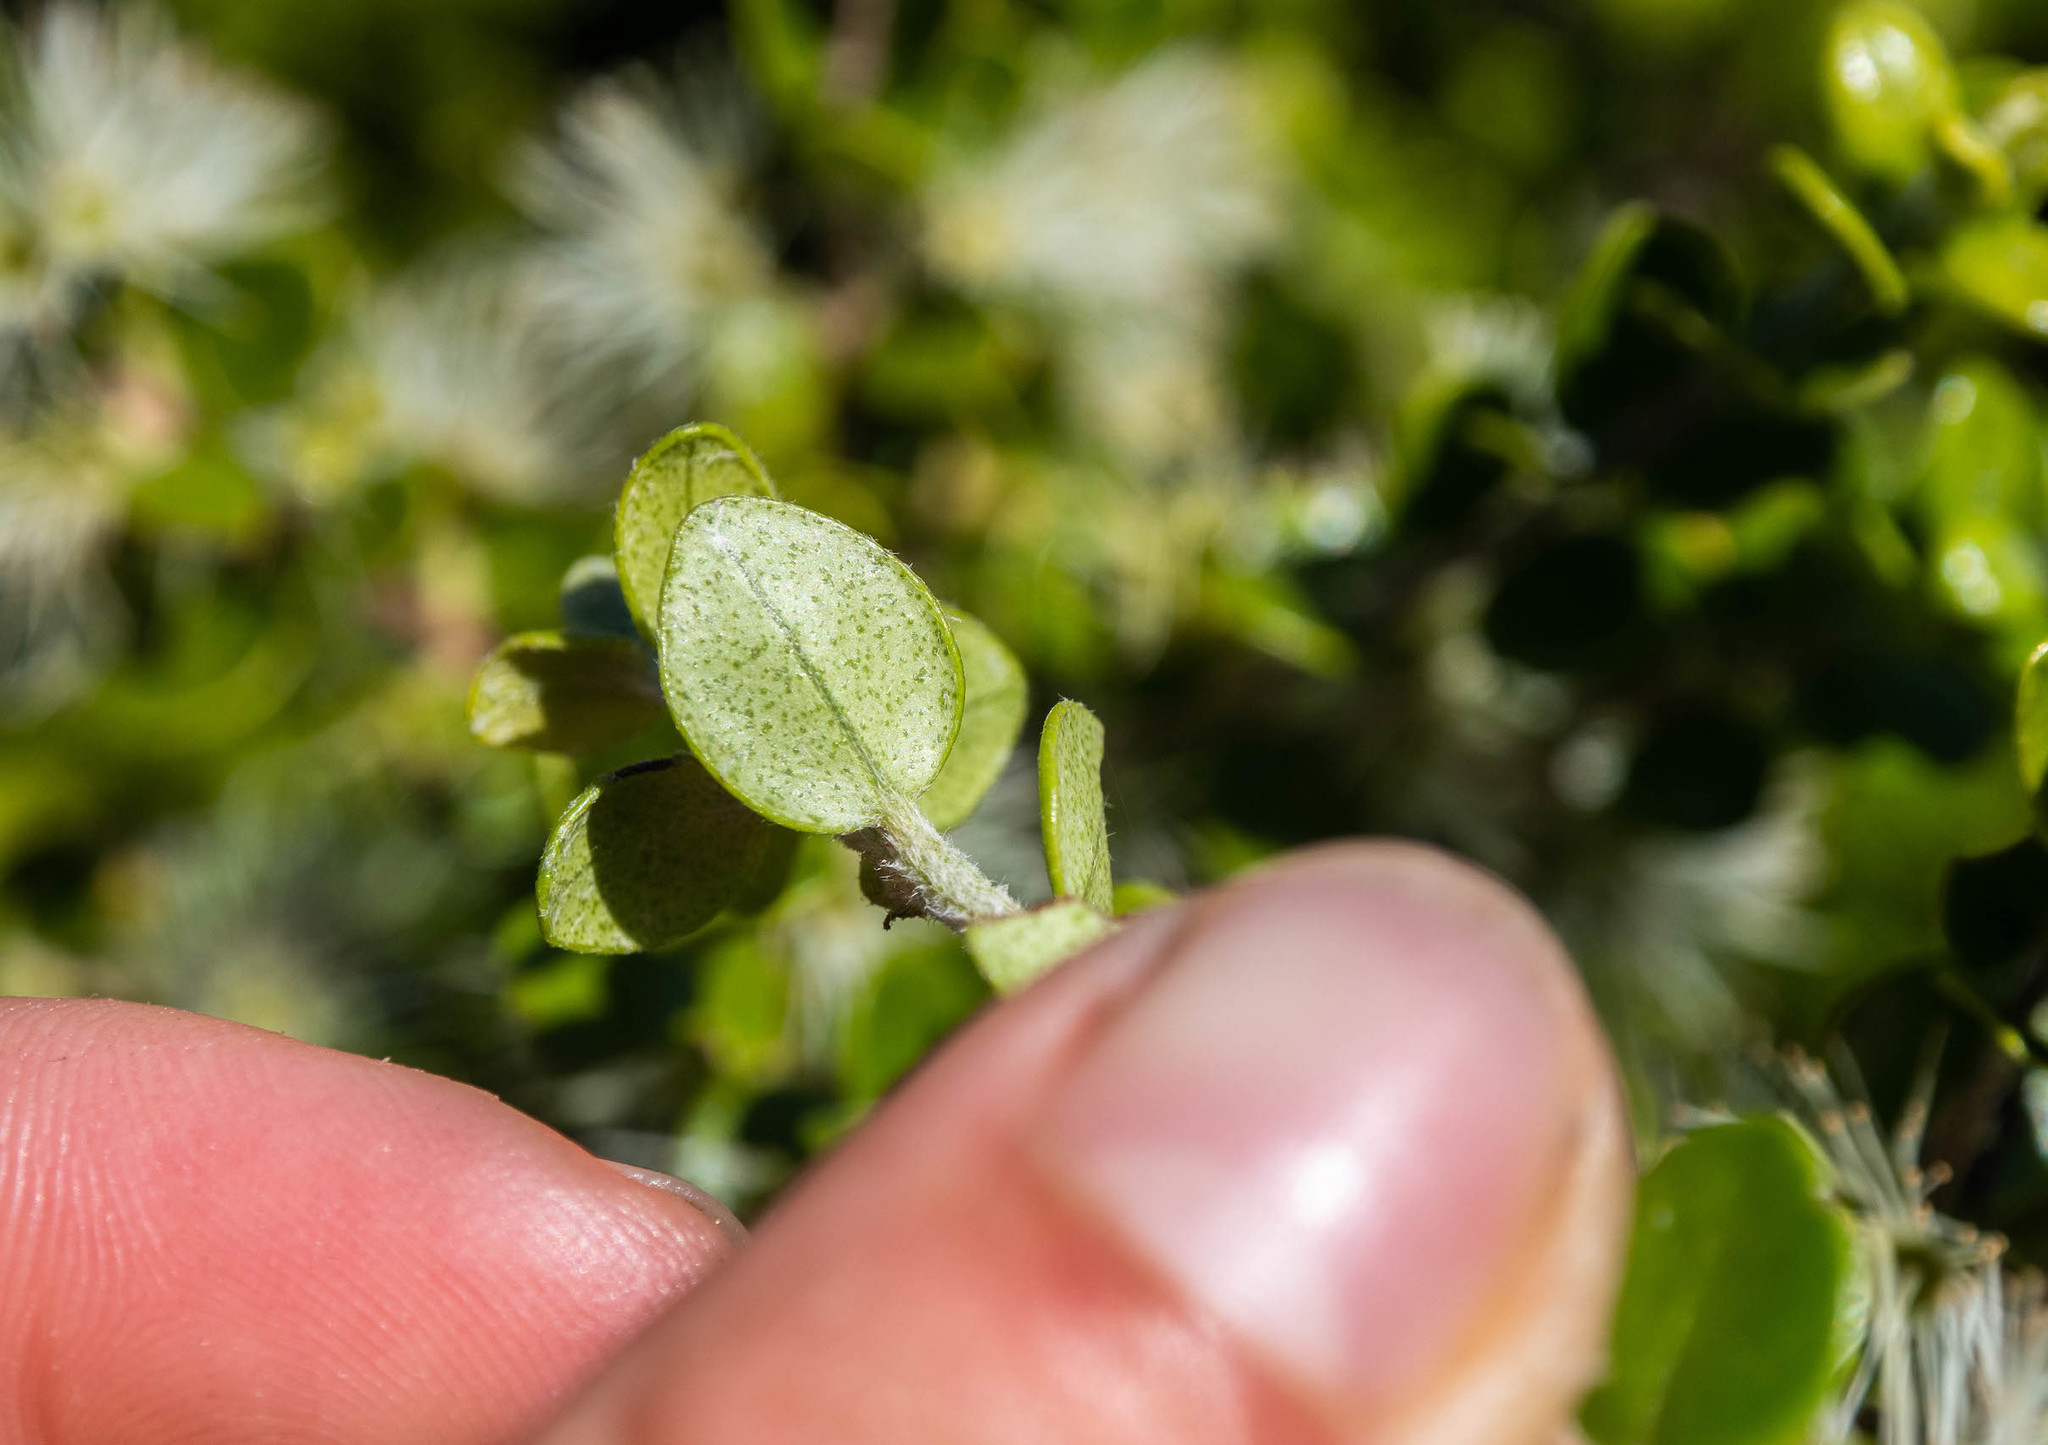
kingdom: Plantae
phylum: Tracheophyta
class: Magnoliopsida
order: Myrtales
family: Myrtaceae
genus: Metrosideros
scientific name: Metrosideros perforata
